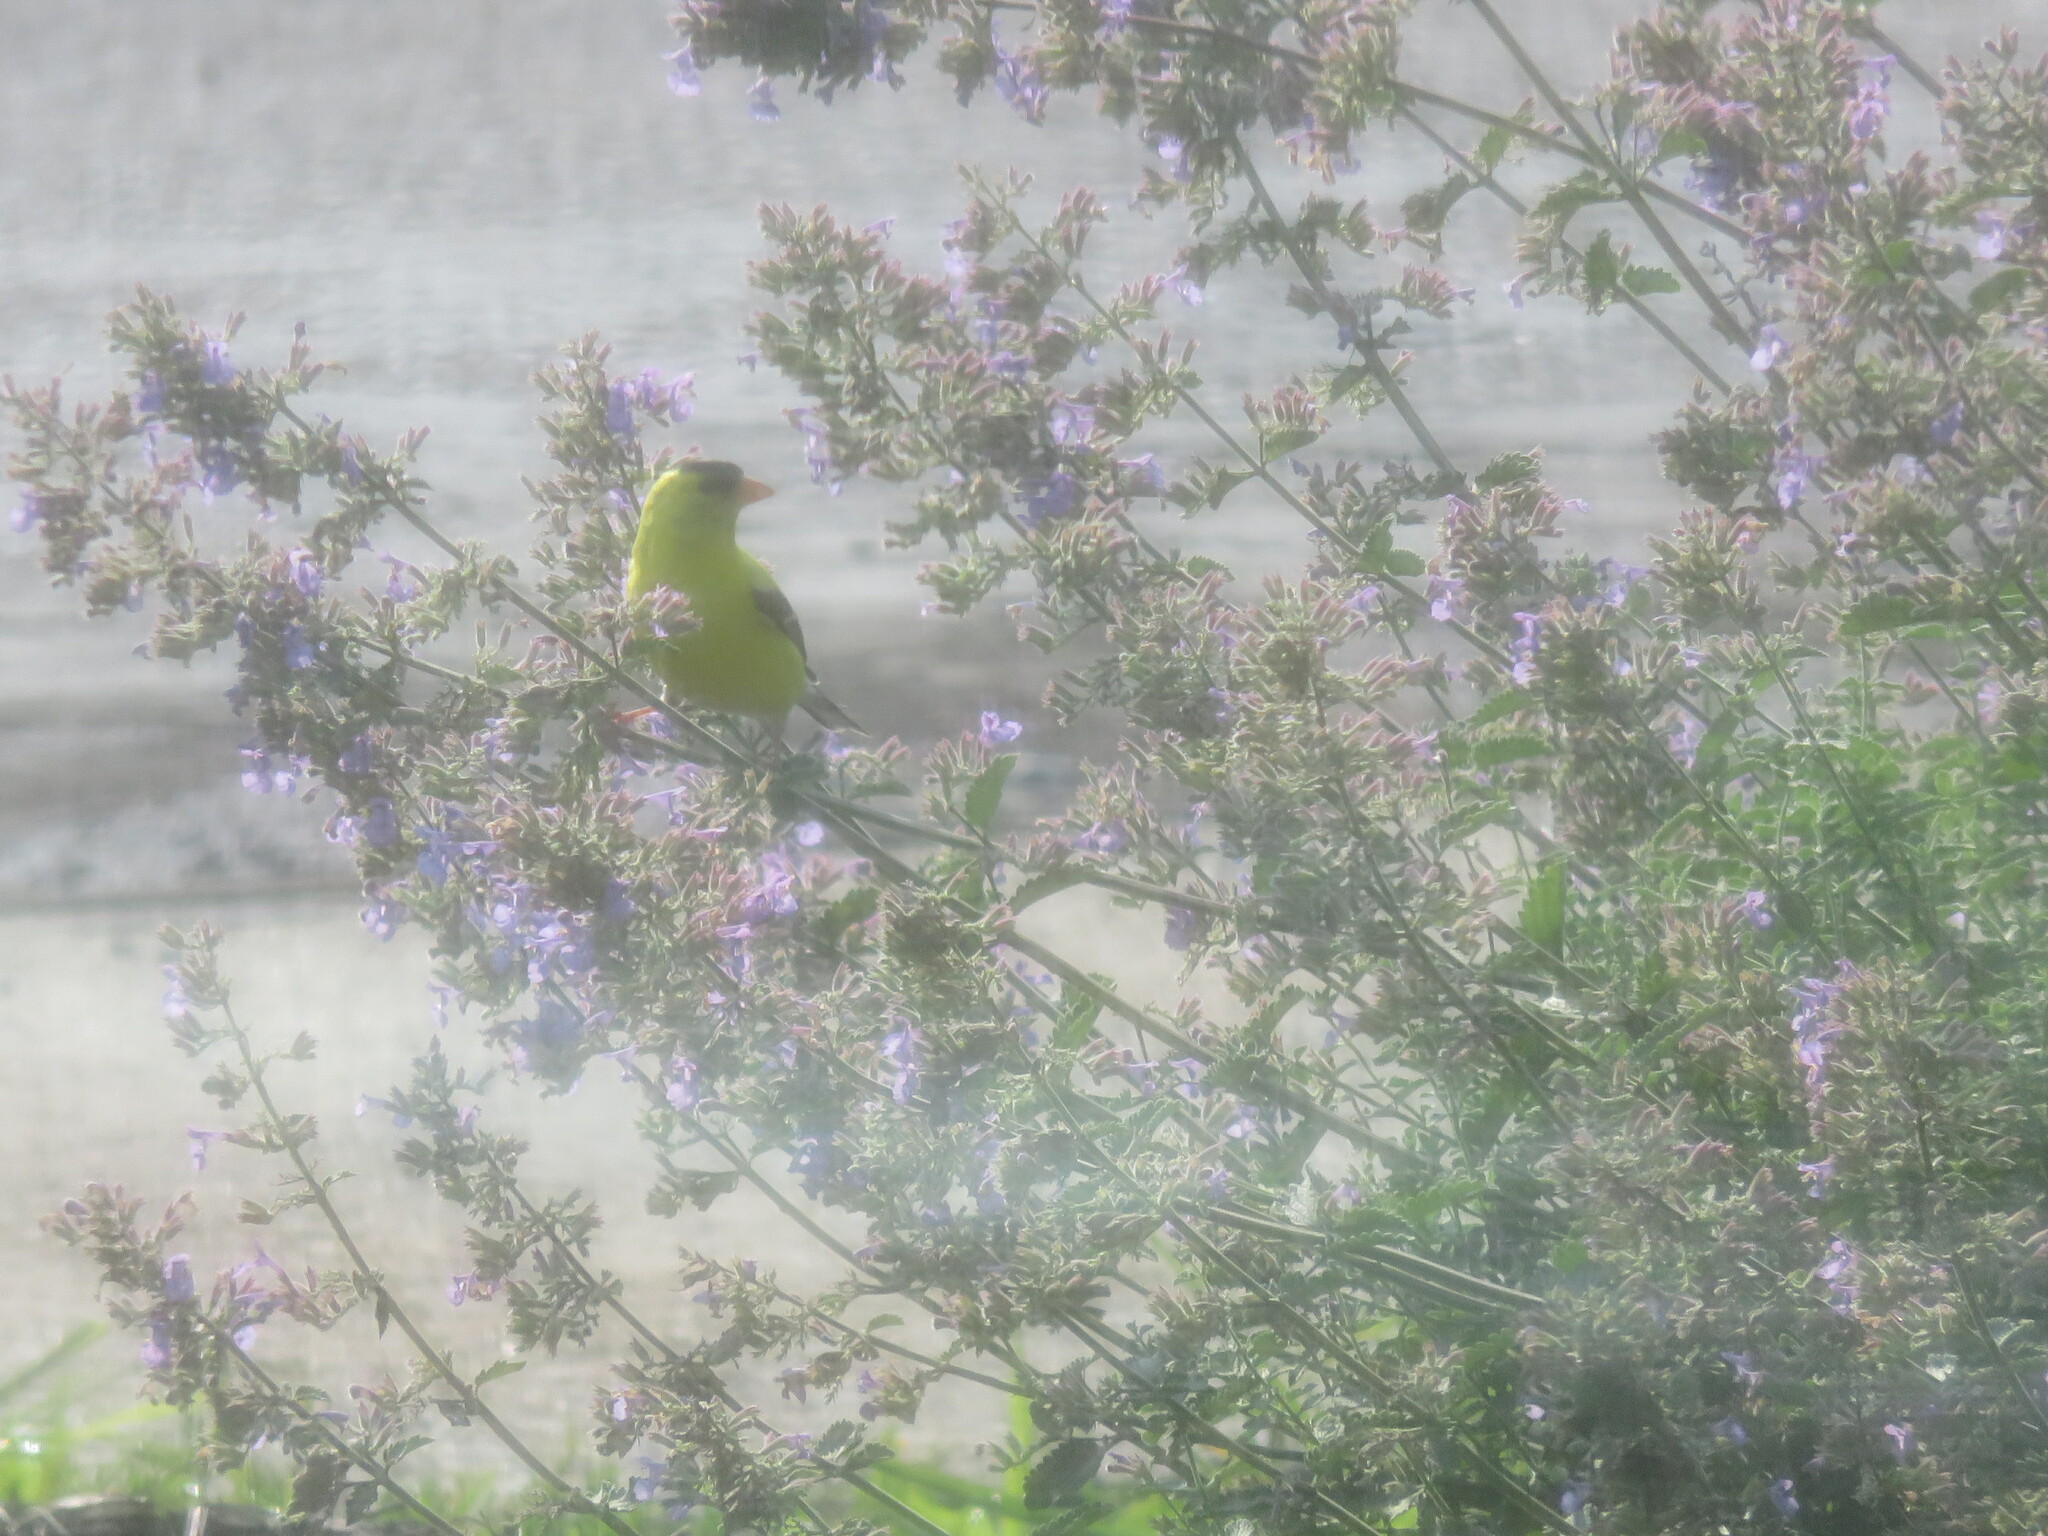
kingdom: Animalia
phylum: Chordata
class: Aves
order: Passeriformes
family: Fringillidae
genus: Spinus
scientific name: Spinus tristis
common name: American goldfinch
